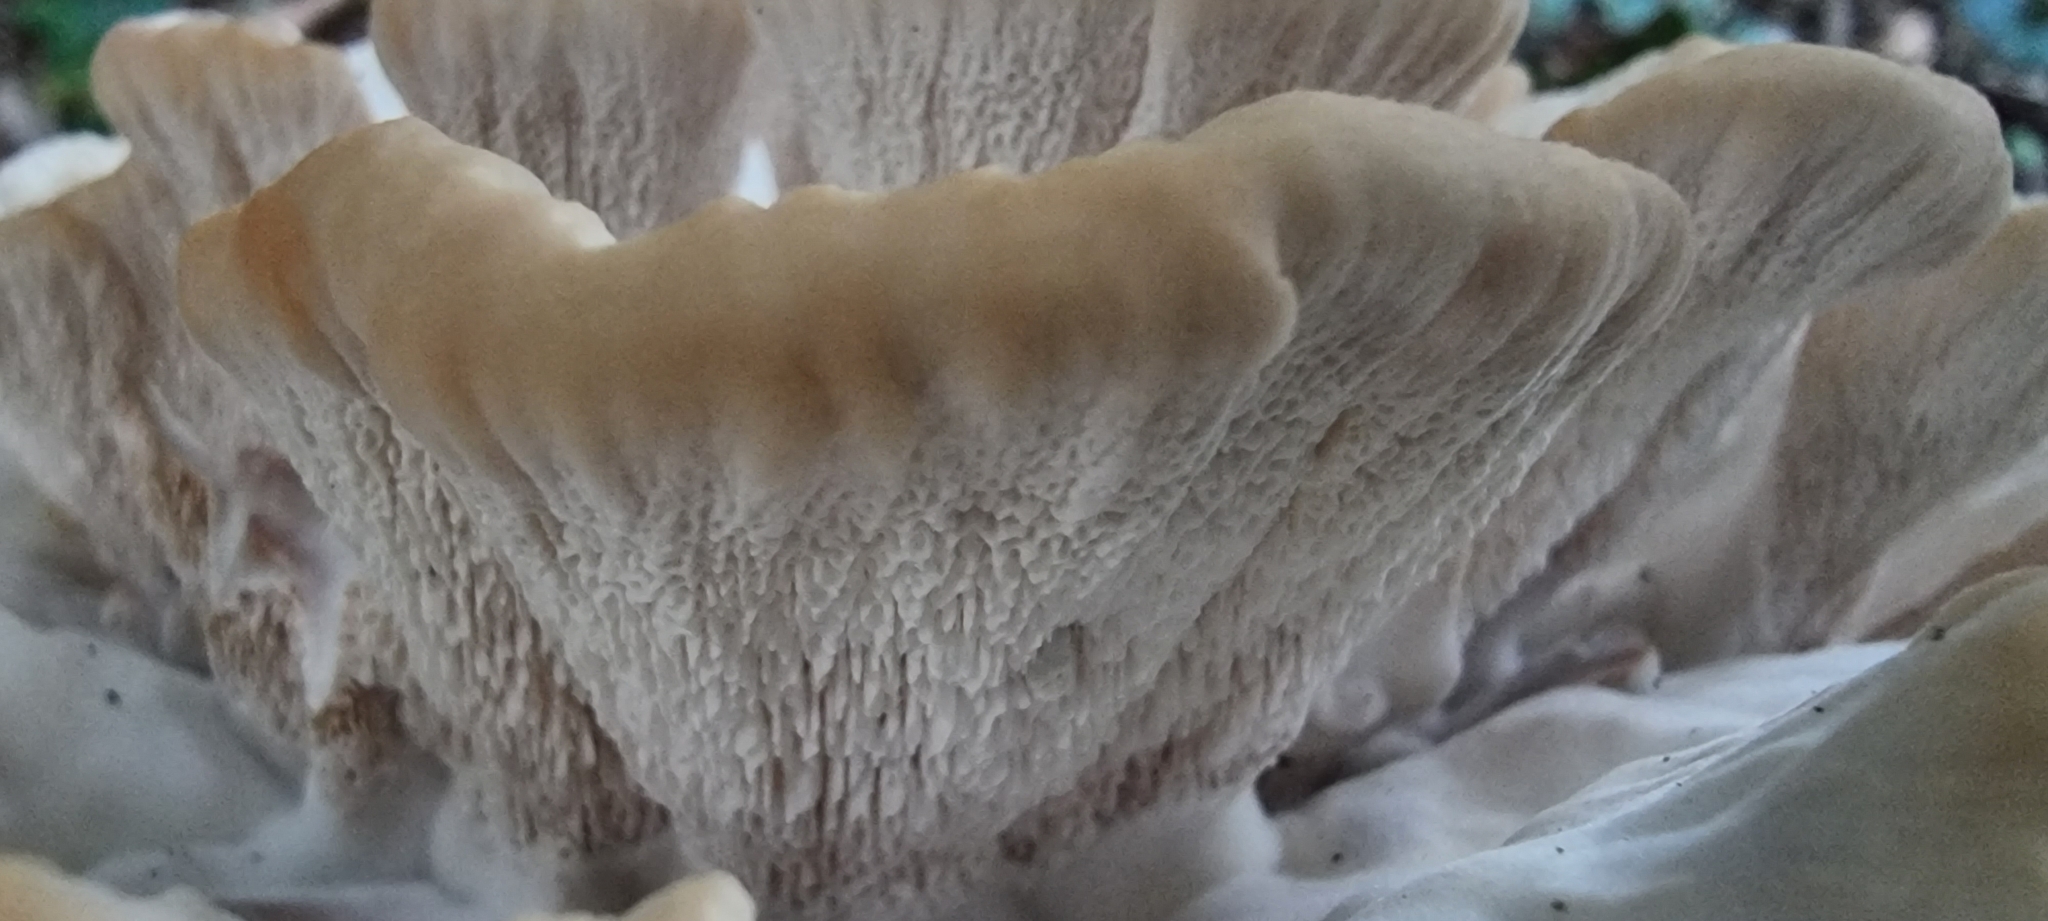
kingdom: Fungi
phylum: Basidiomycota
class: Agaricomycetes
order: Polyporales
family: Podoscyphaceae
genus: Abortiporus
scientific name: Abortiporus biennis
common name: Blushing rosette
